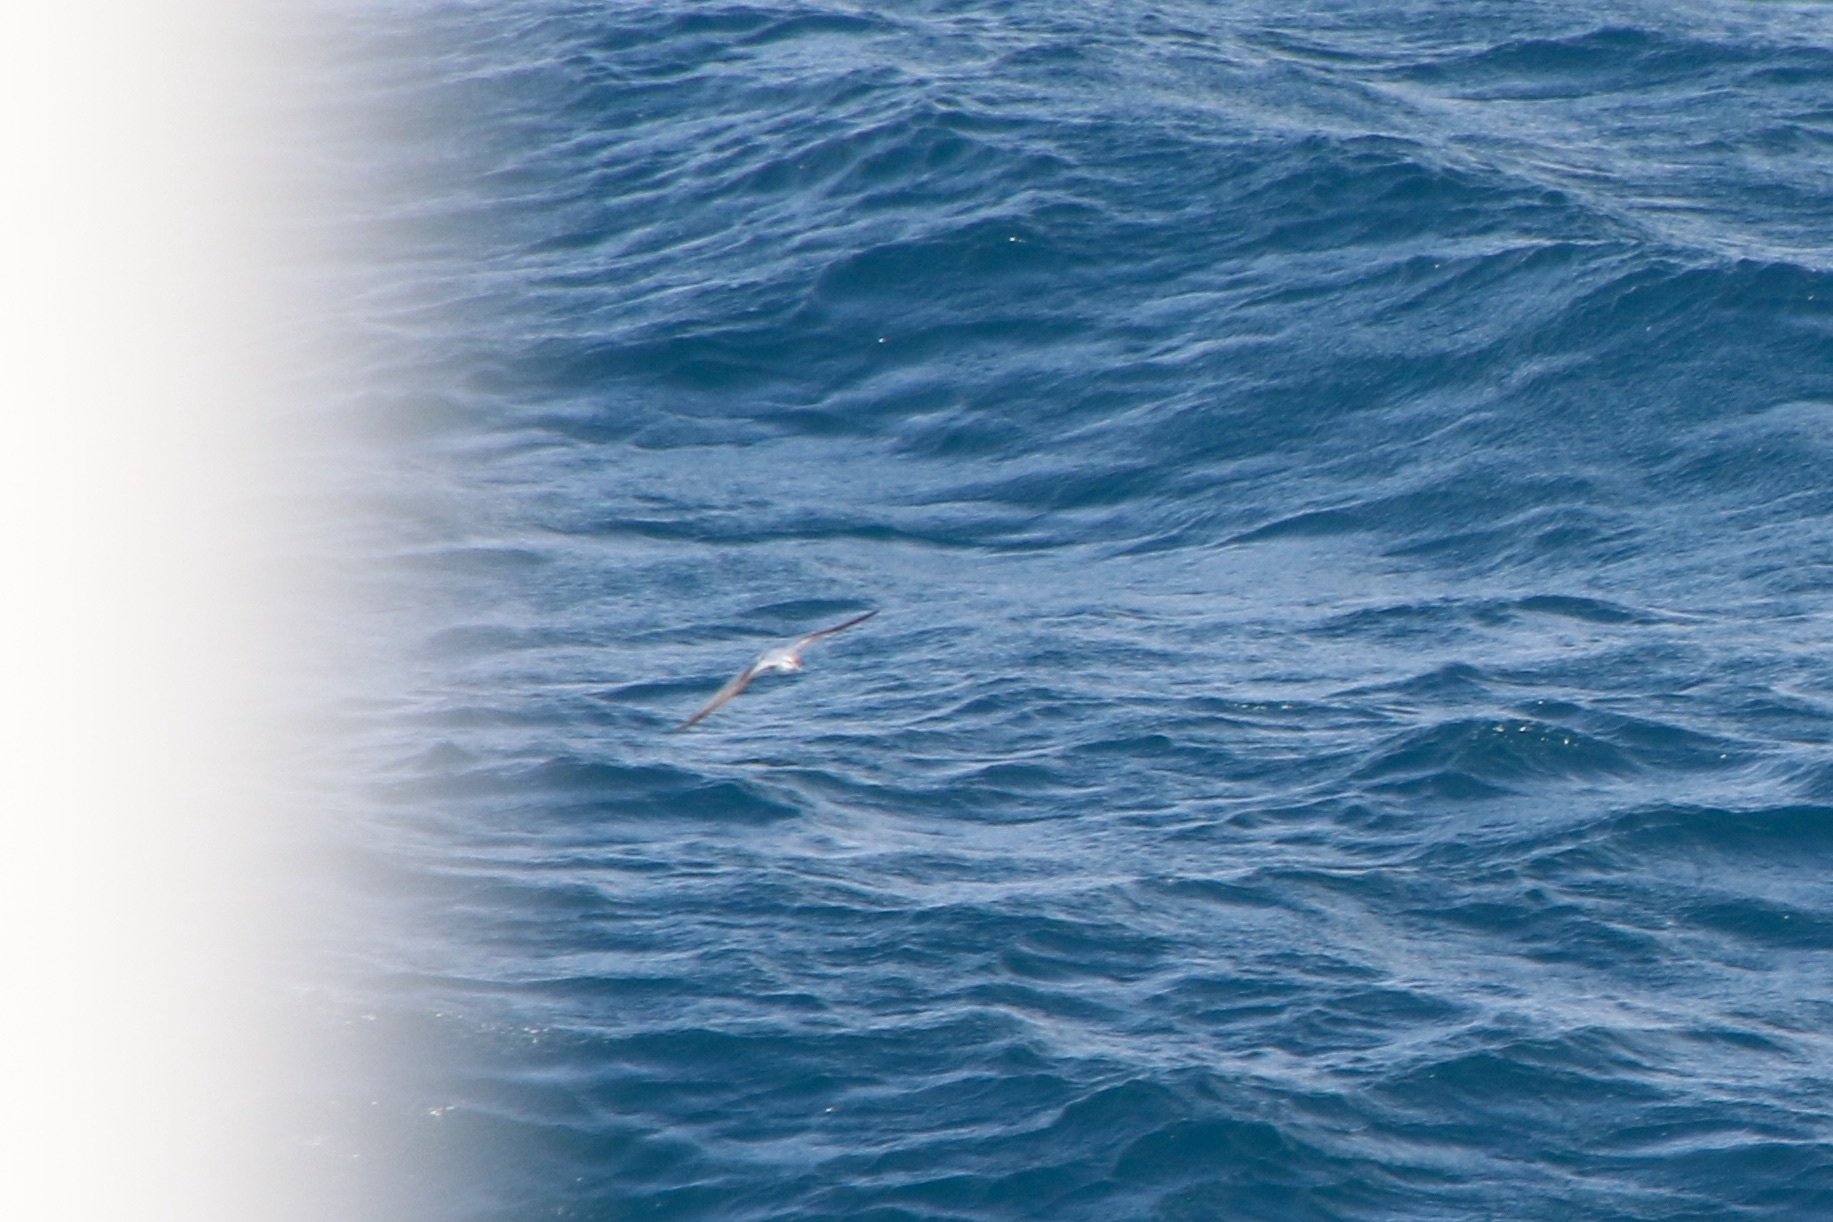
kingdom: Animalia
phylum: Chordata
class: Aves
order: Procellariiformes
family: Procellariidae
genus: Pachyptila
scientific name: Pachyptila turtur
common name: Fairy prion
